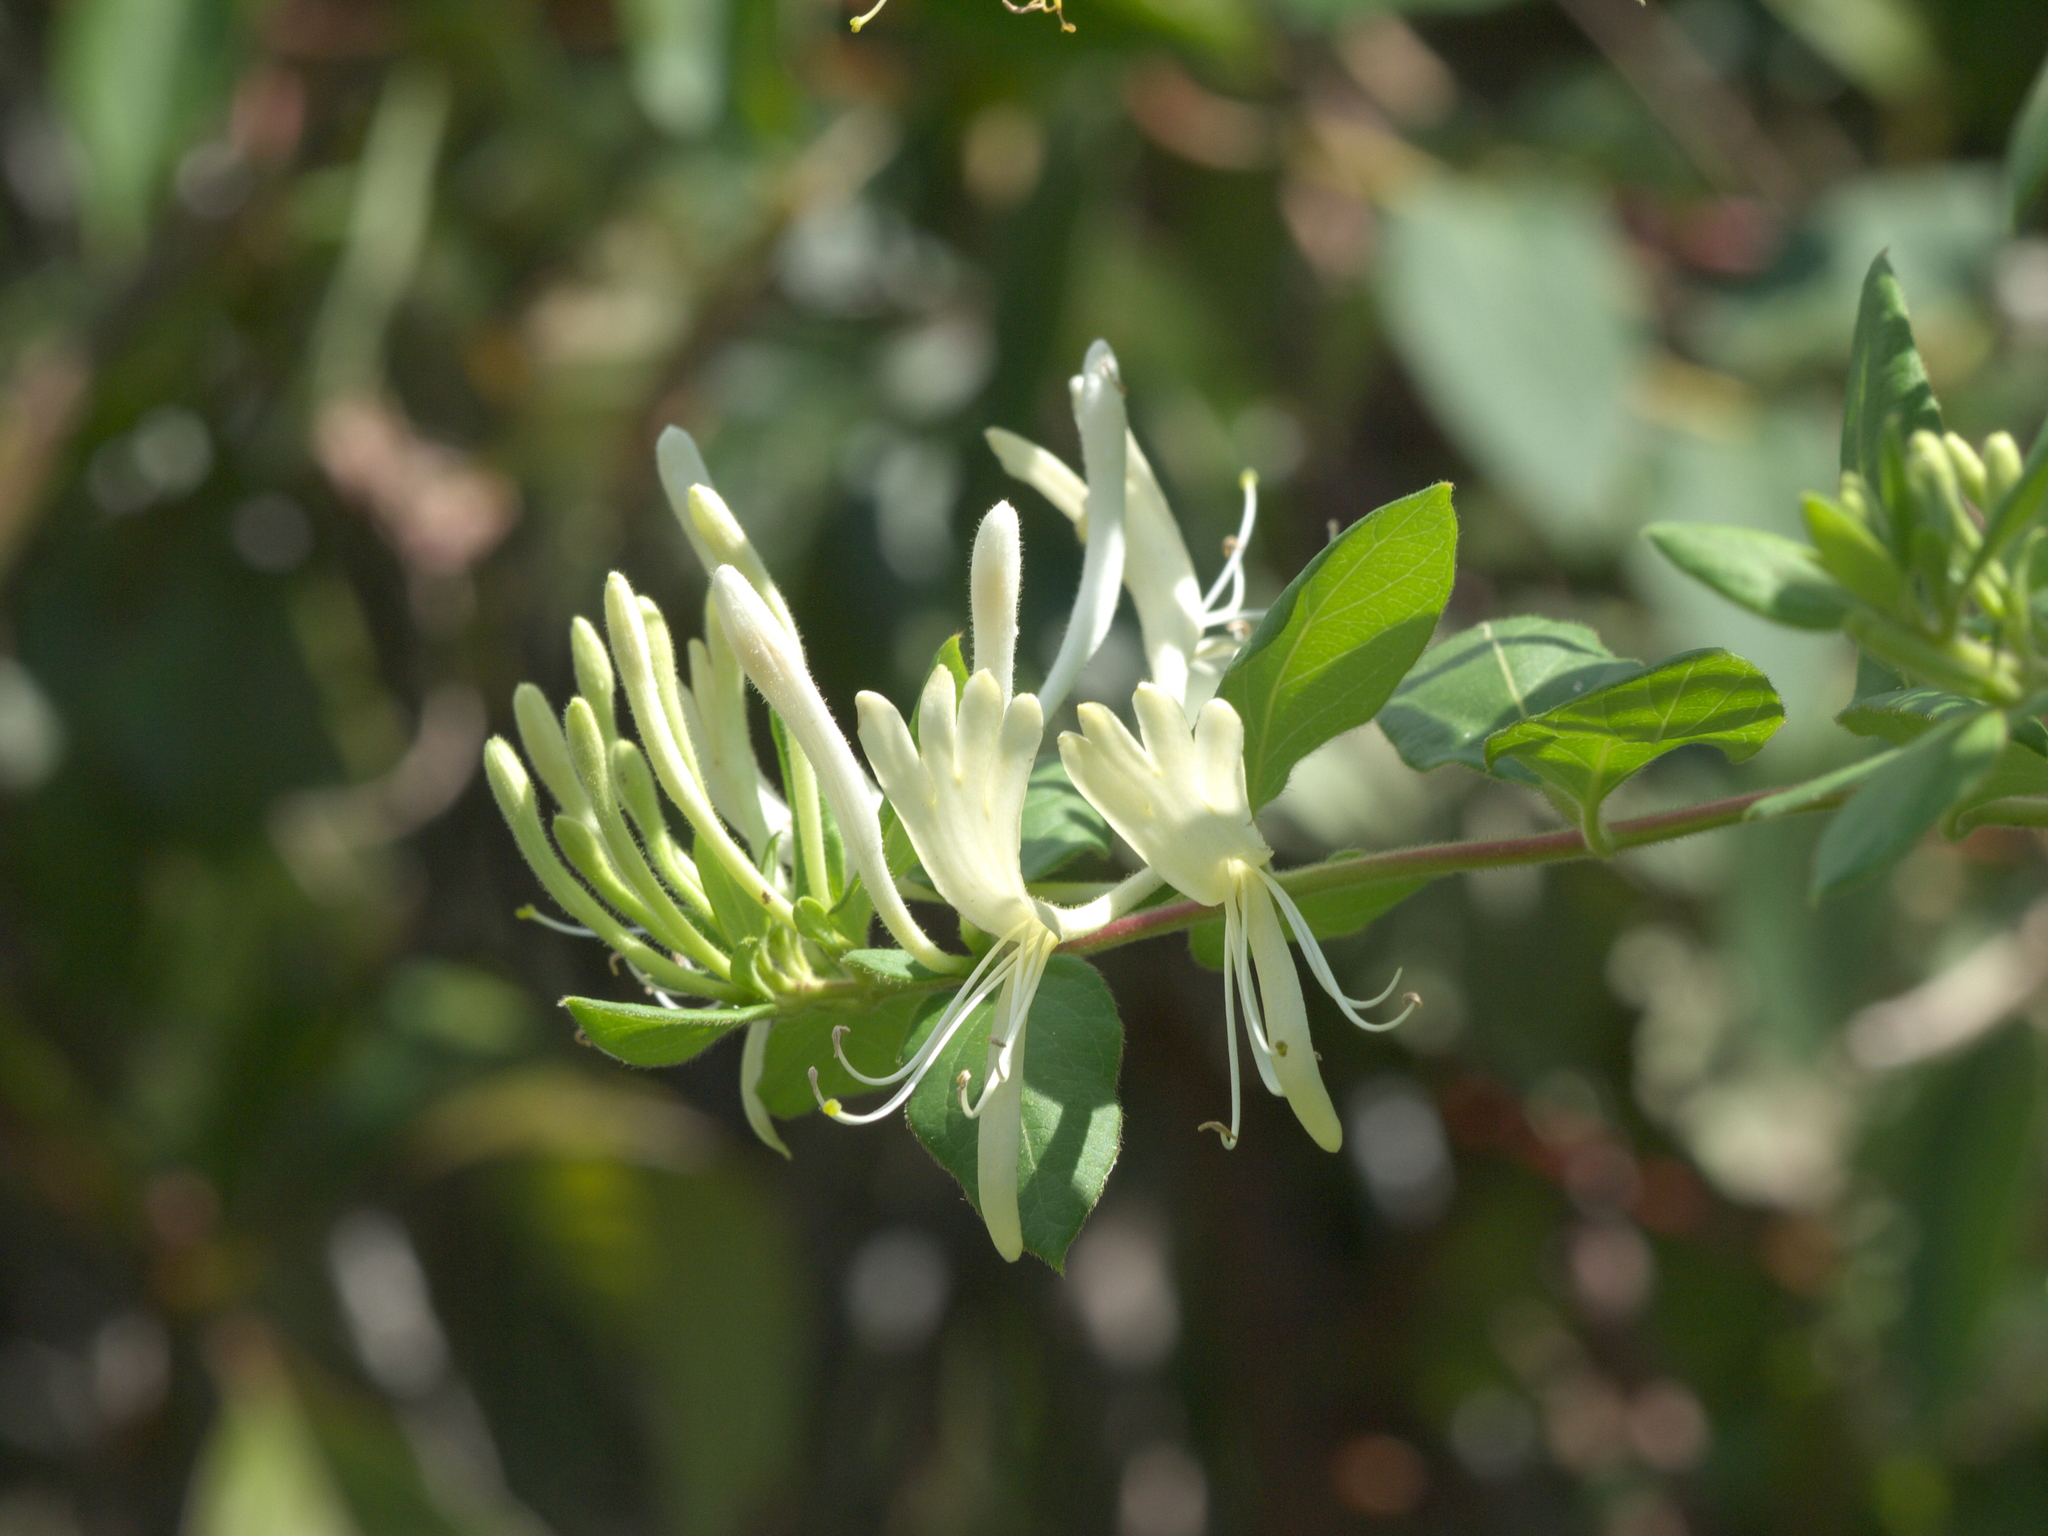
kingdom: Plantae
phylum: Tracheophyta
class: Magnoliopsida
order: Dipsacales
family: Caprifoliaceae
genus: Lonicera
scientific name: Lonicera japonica
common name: Japanese honeysuckle
